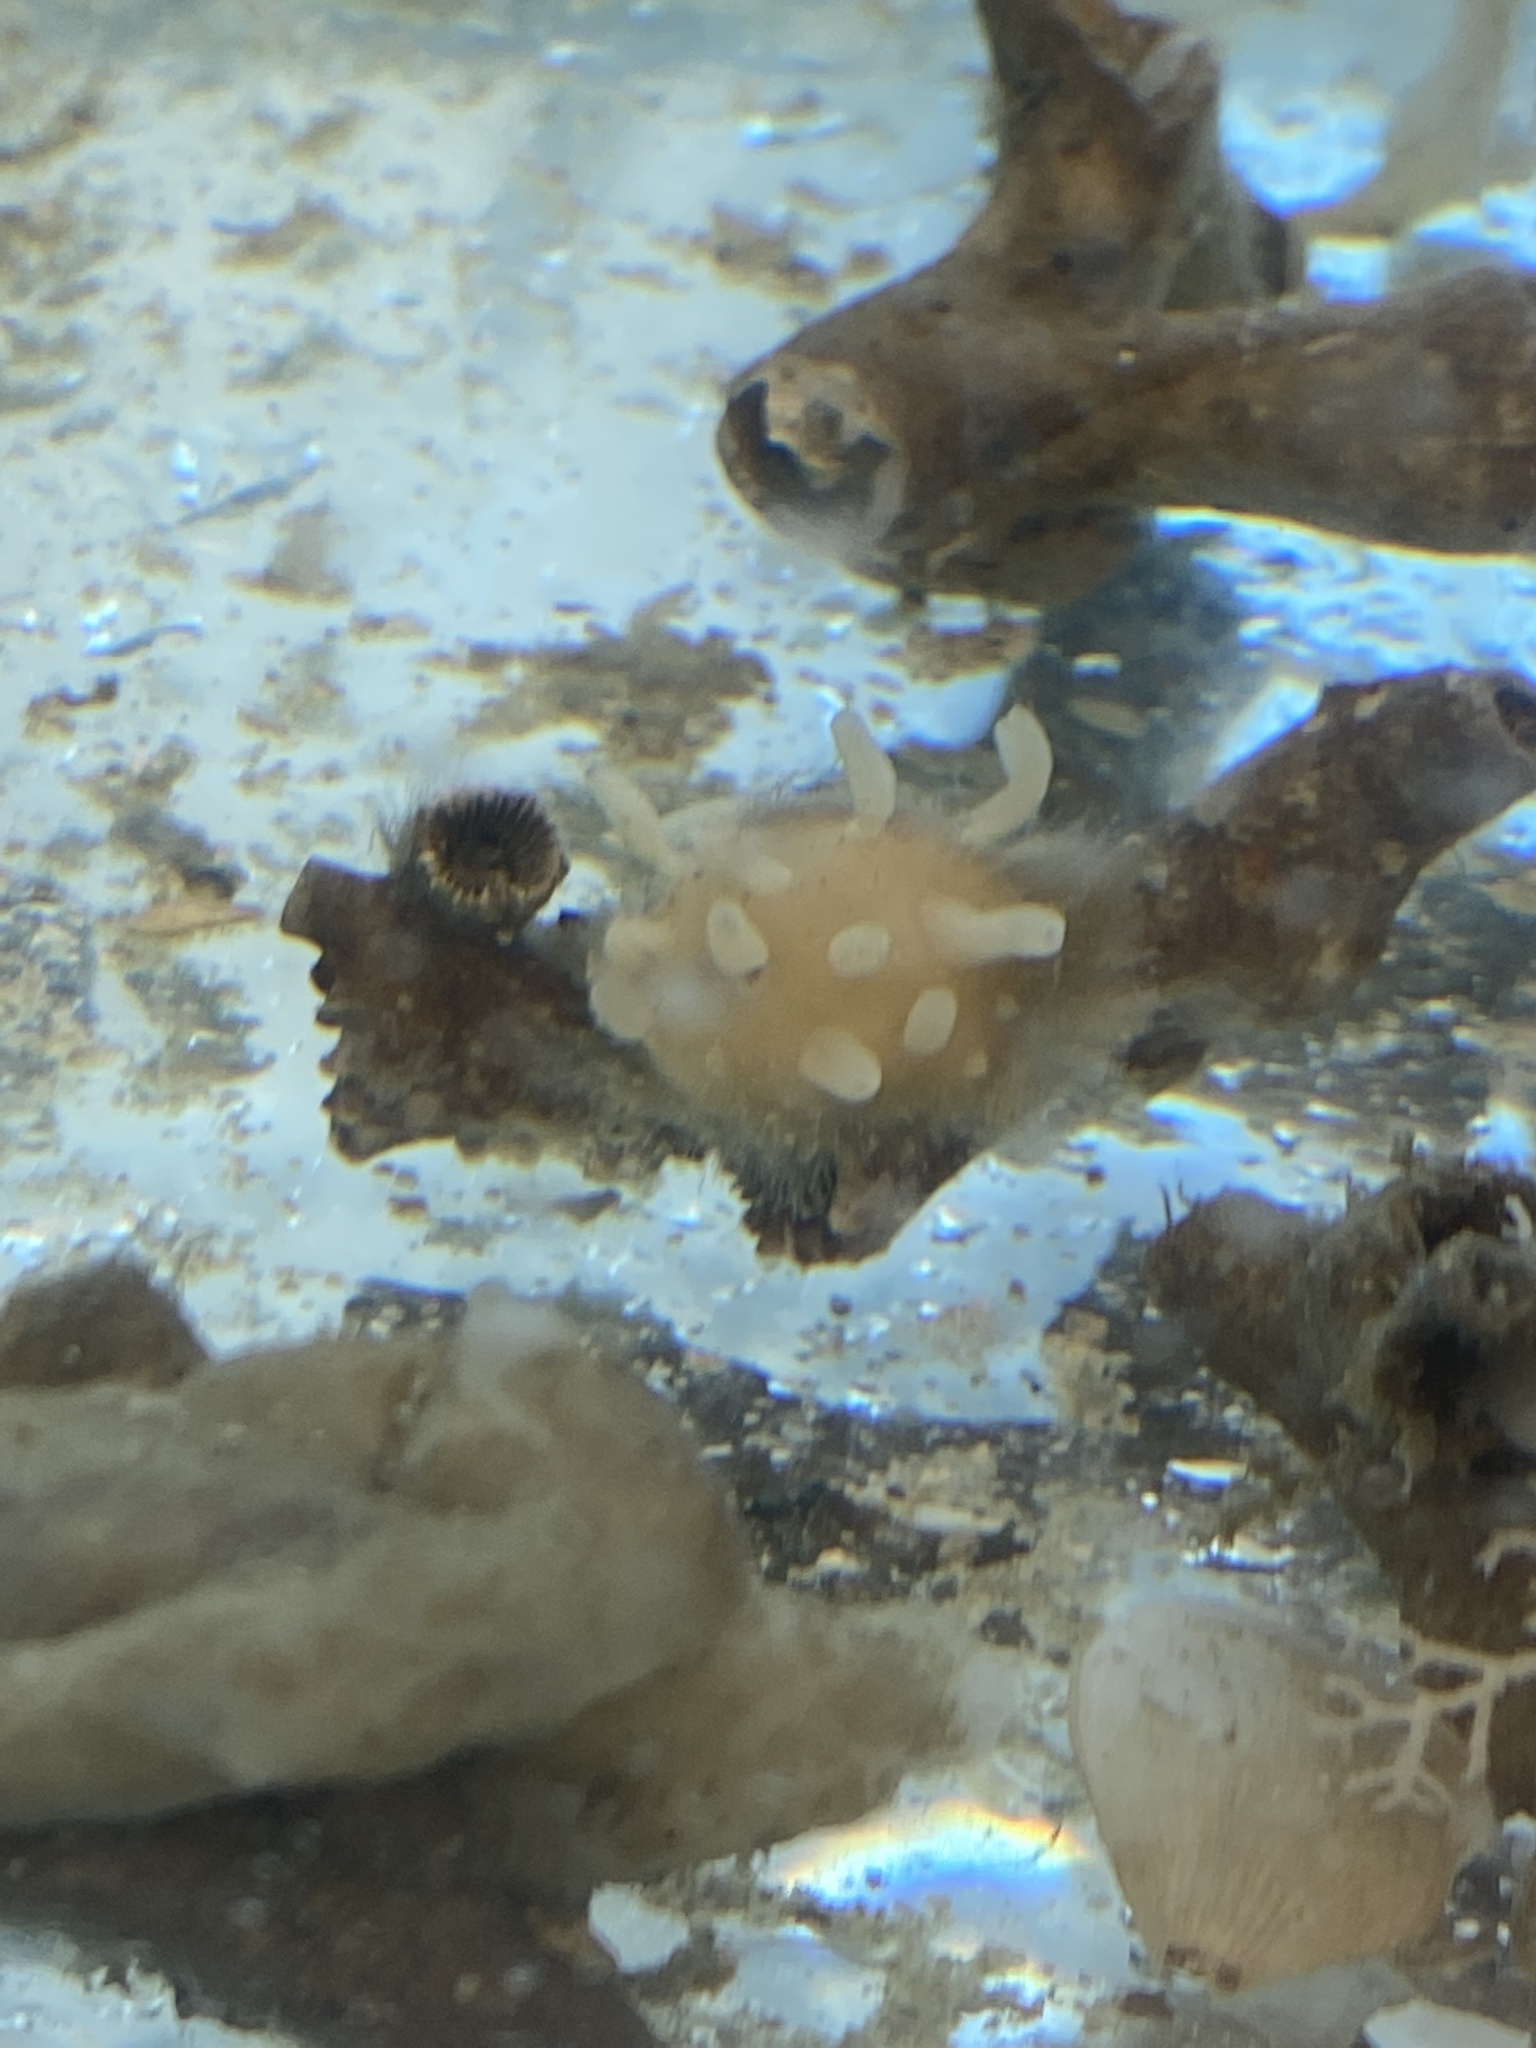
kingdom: Animalia
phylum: Porifera
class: Demospongiae
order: Polymastiida
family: Polymastiidae
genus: Polymastia
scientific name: Polymastia hemisphaerica
